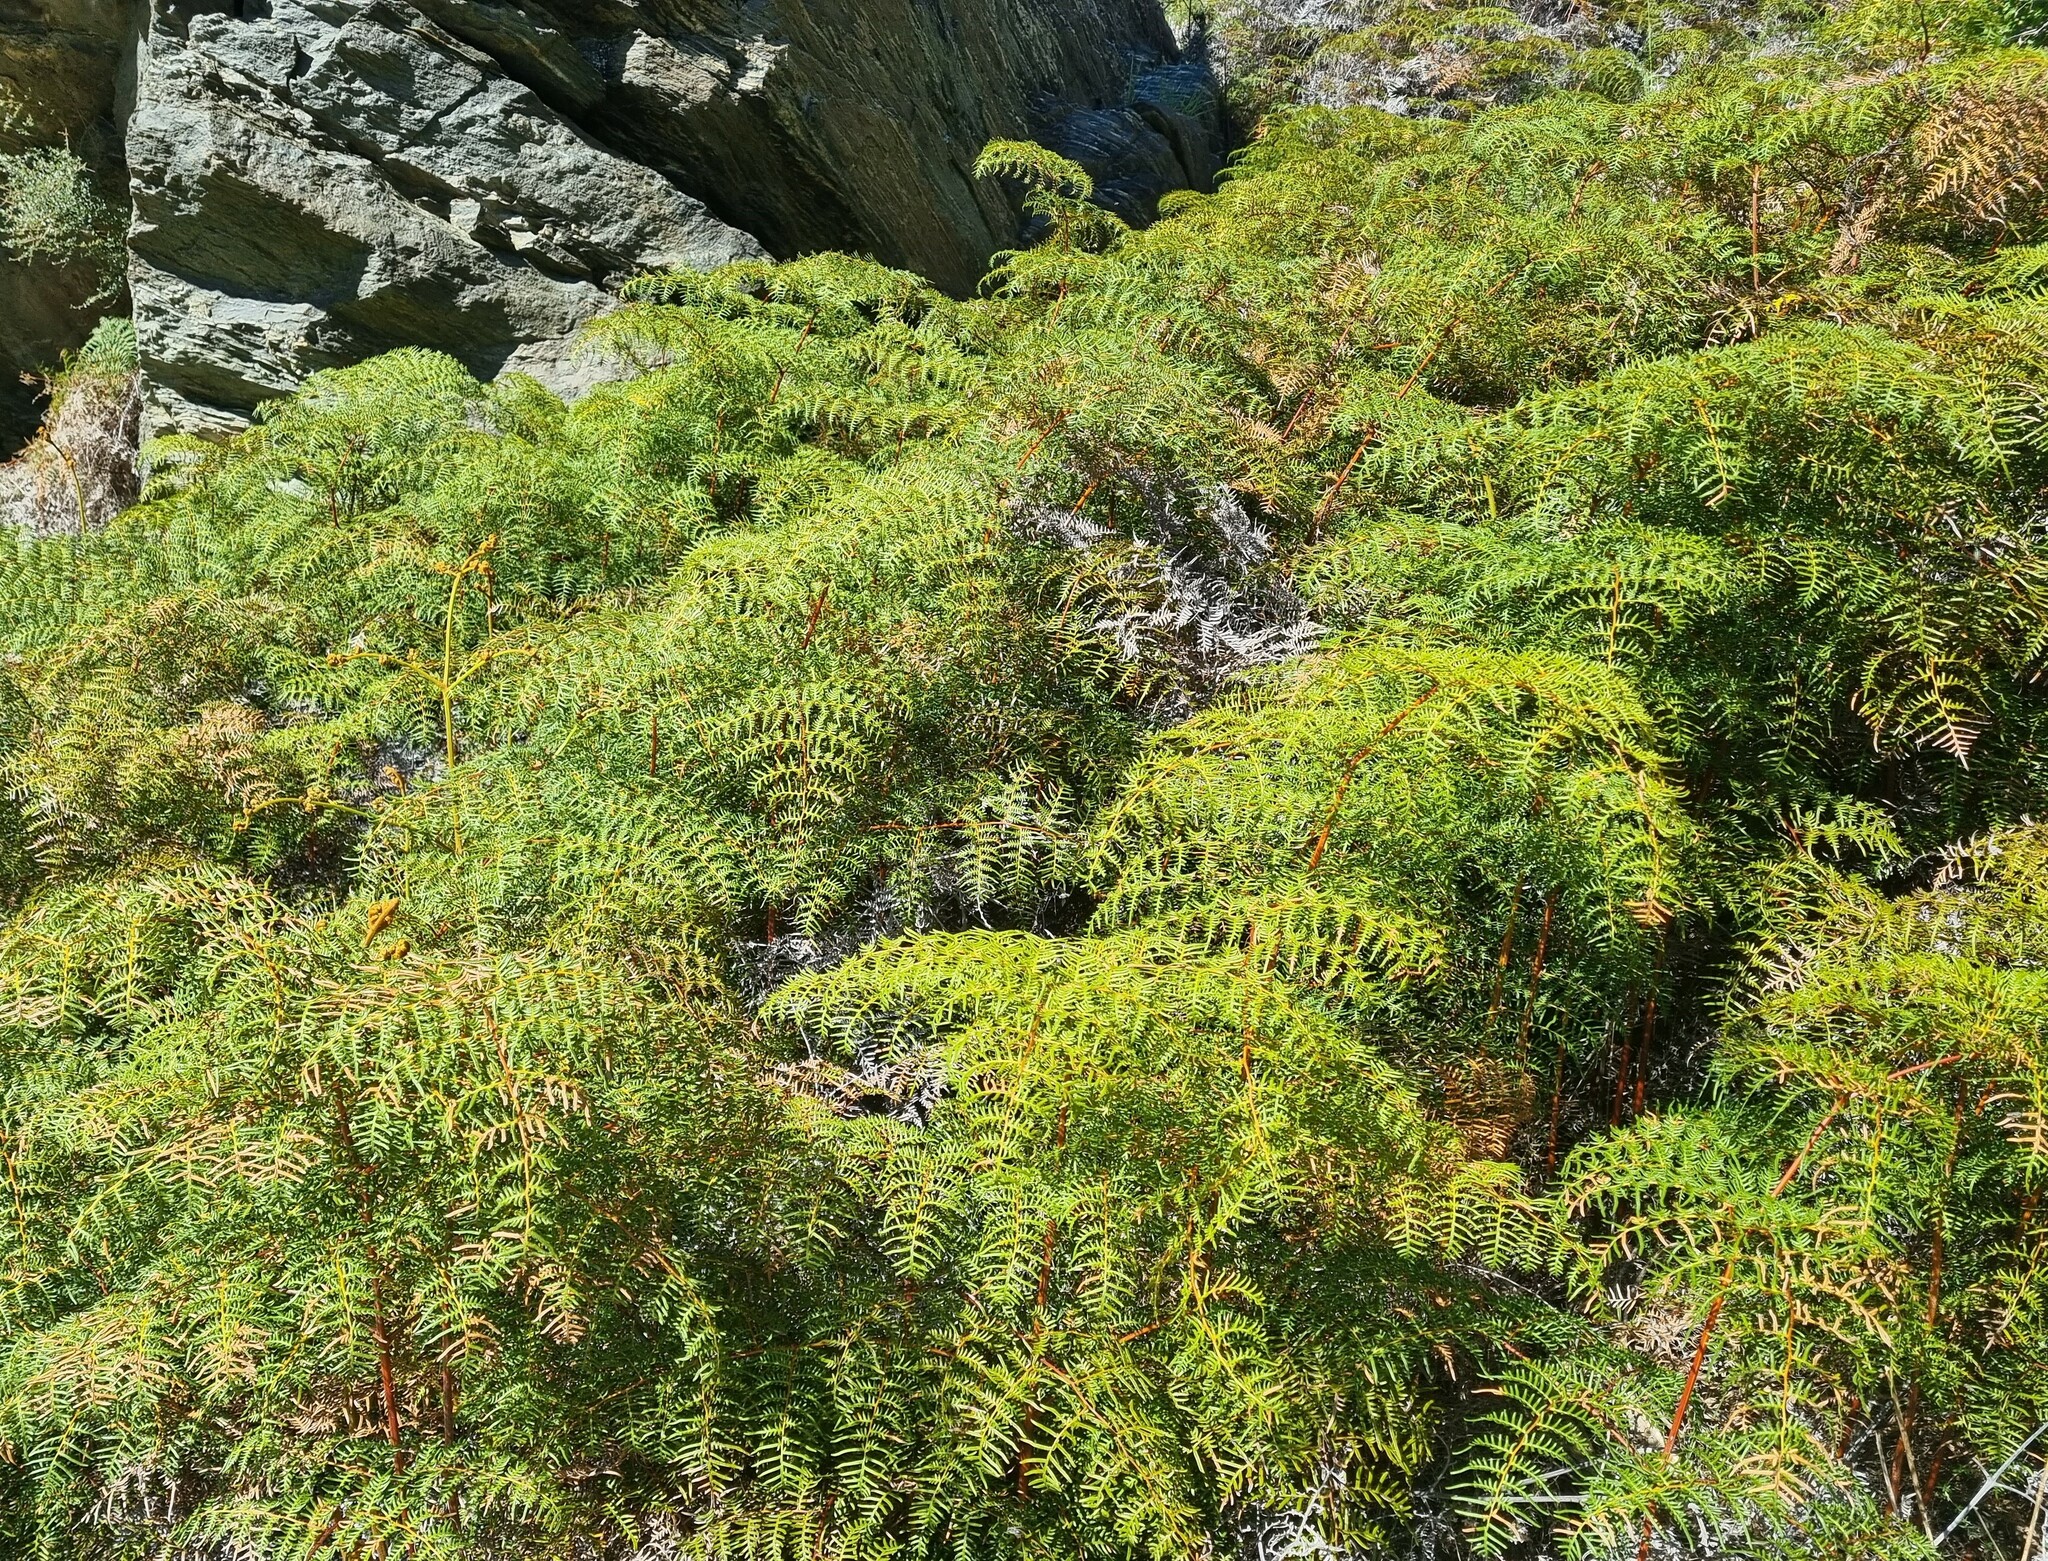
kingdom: Plantae
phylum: Tracheophyta
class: Polypodiopsida
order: Polypodiales
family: Dennstaedtiaceae
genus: Pteridium
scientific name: Pteridium esculentum
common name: Bracken fern
